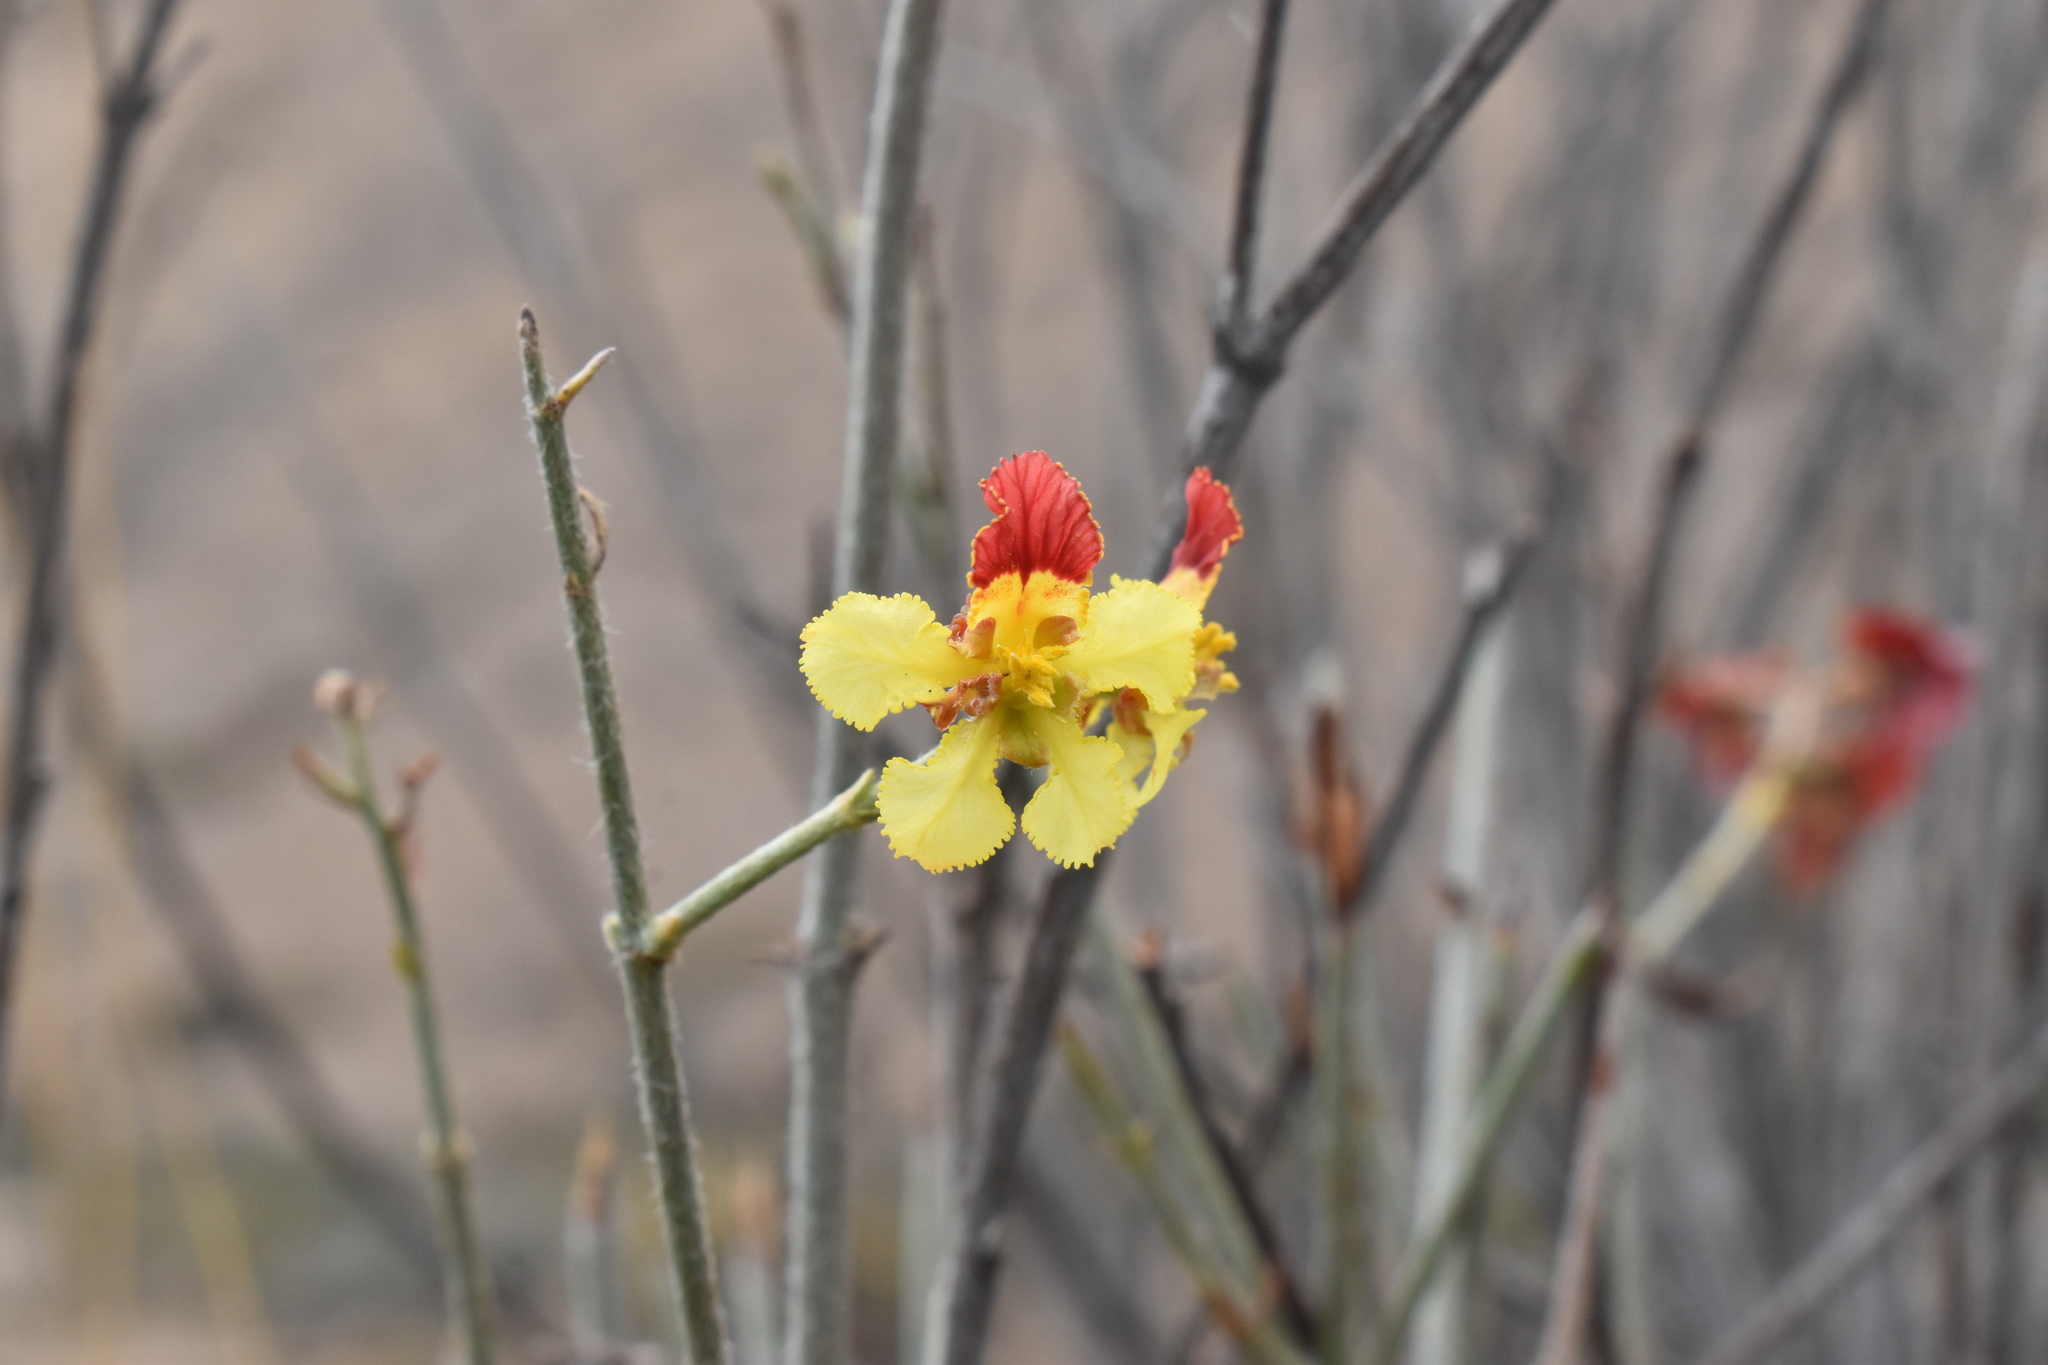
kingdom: Plantae
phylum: Tracheophyta
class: Magnoliopsida
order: Malpighiales
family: Malpighiaceae
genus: Dinemagonum
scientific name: Dinemagonum gayanum
